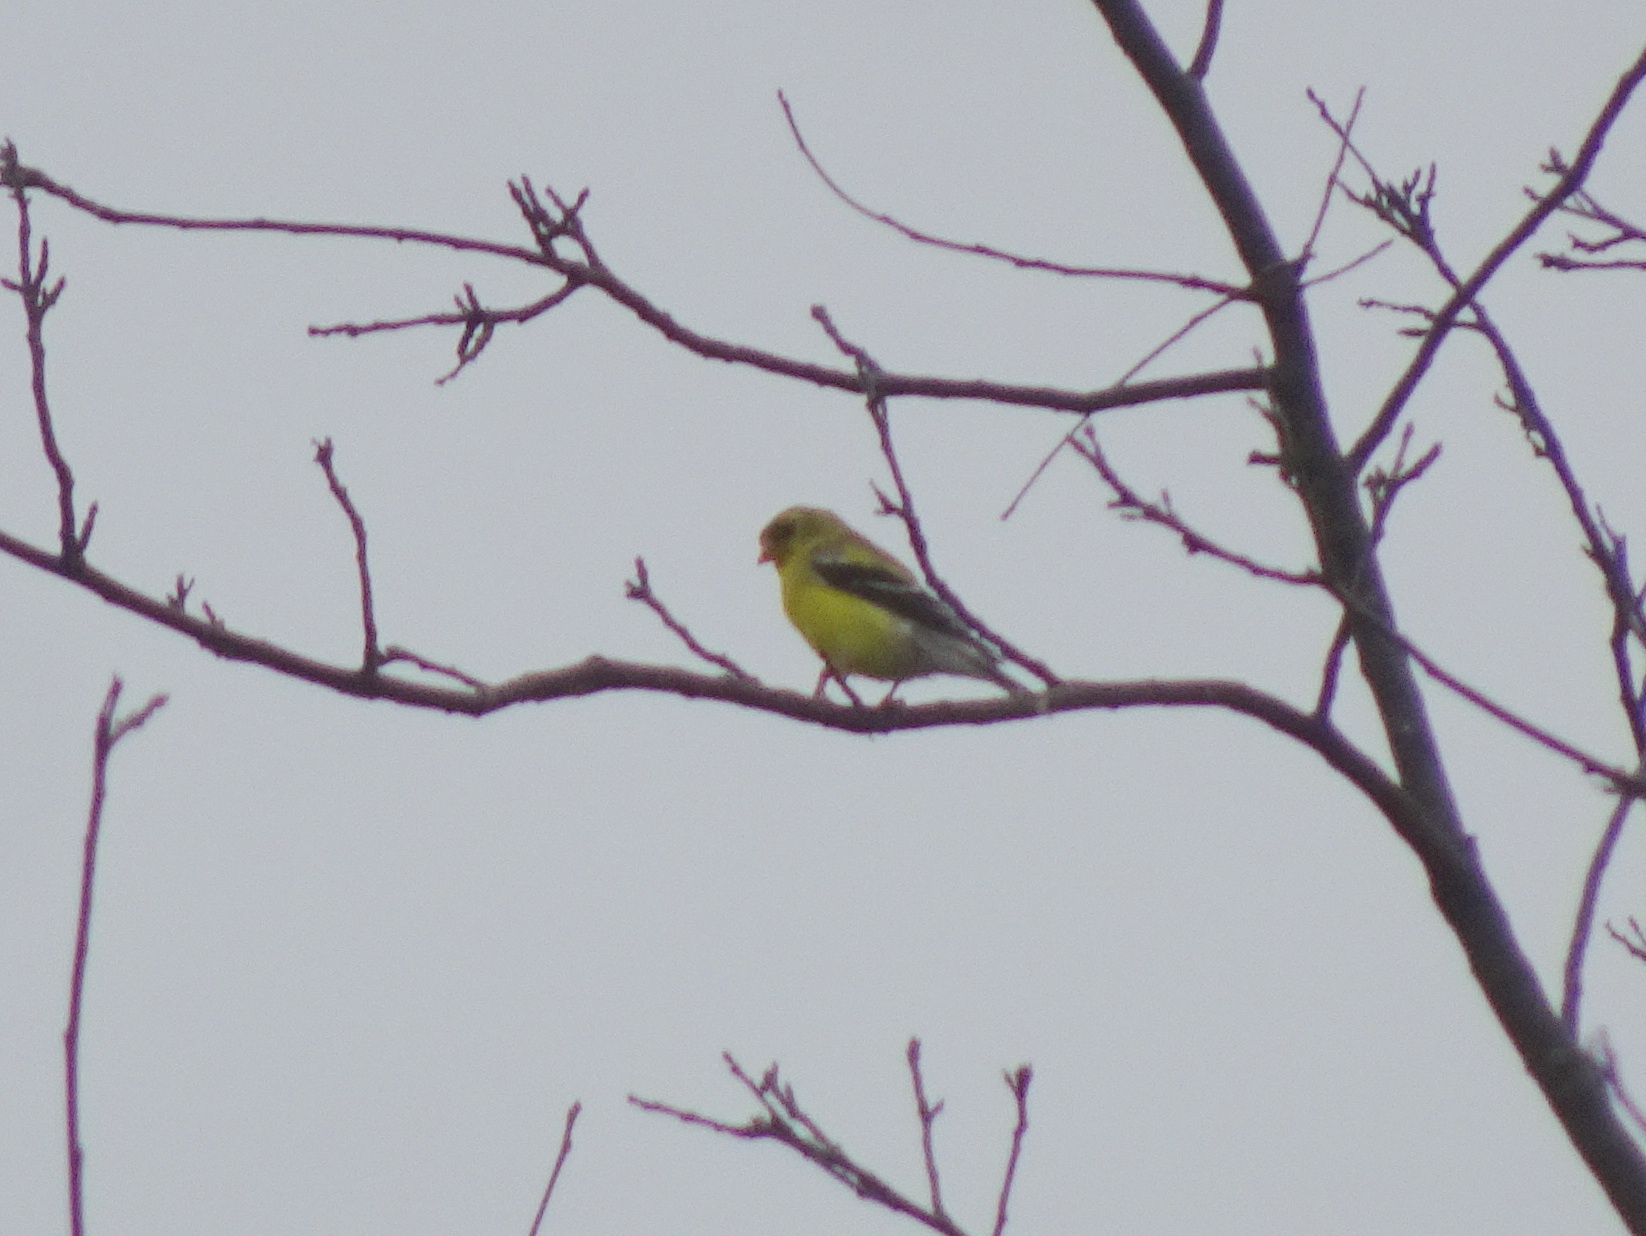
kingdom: Animalia
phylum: Chordata
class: Aves
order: Passeriformes
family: Fringillidae
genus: Spinus
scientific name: Spinus tristis
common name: American goldfinch
